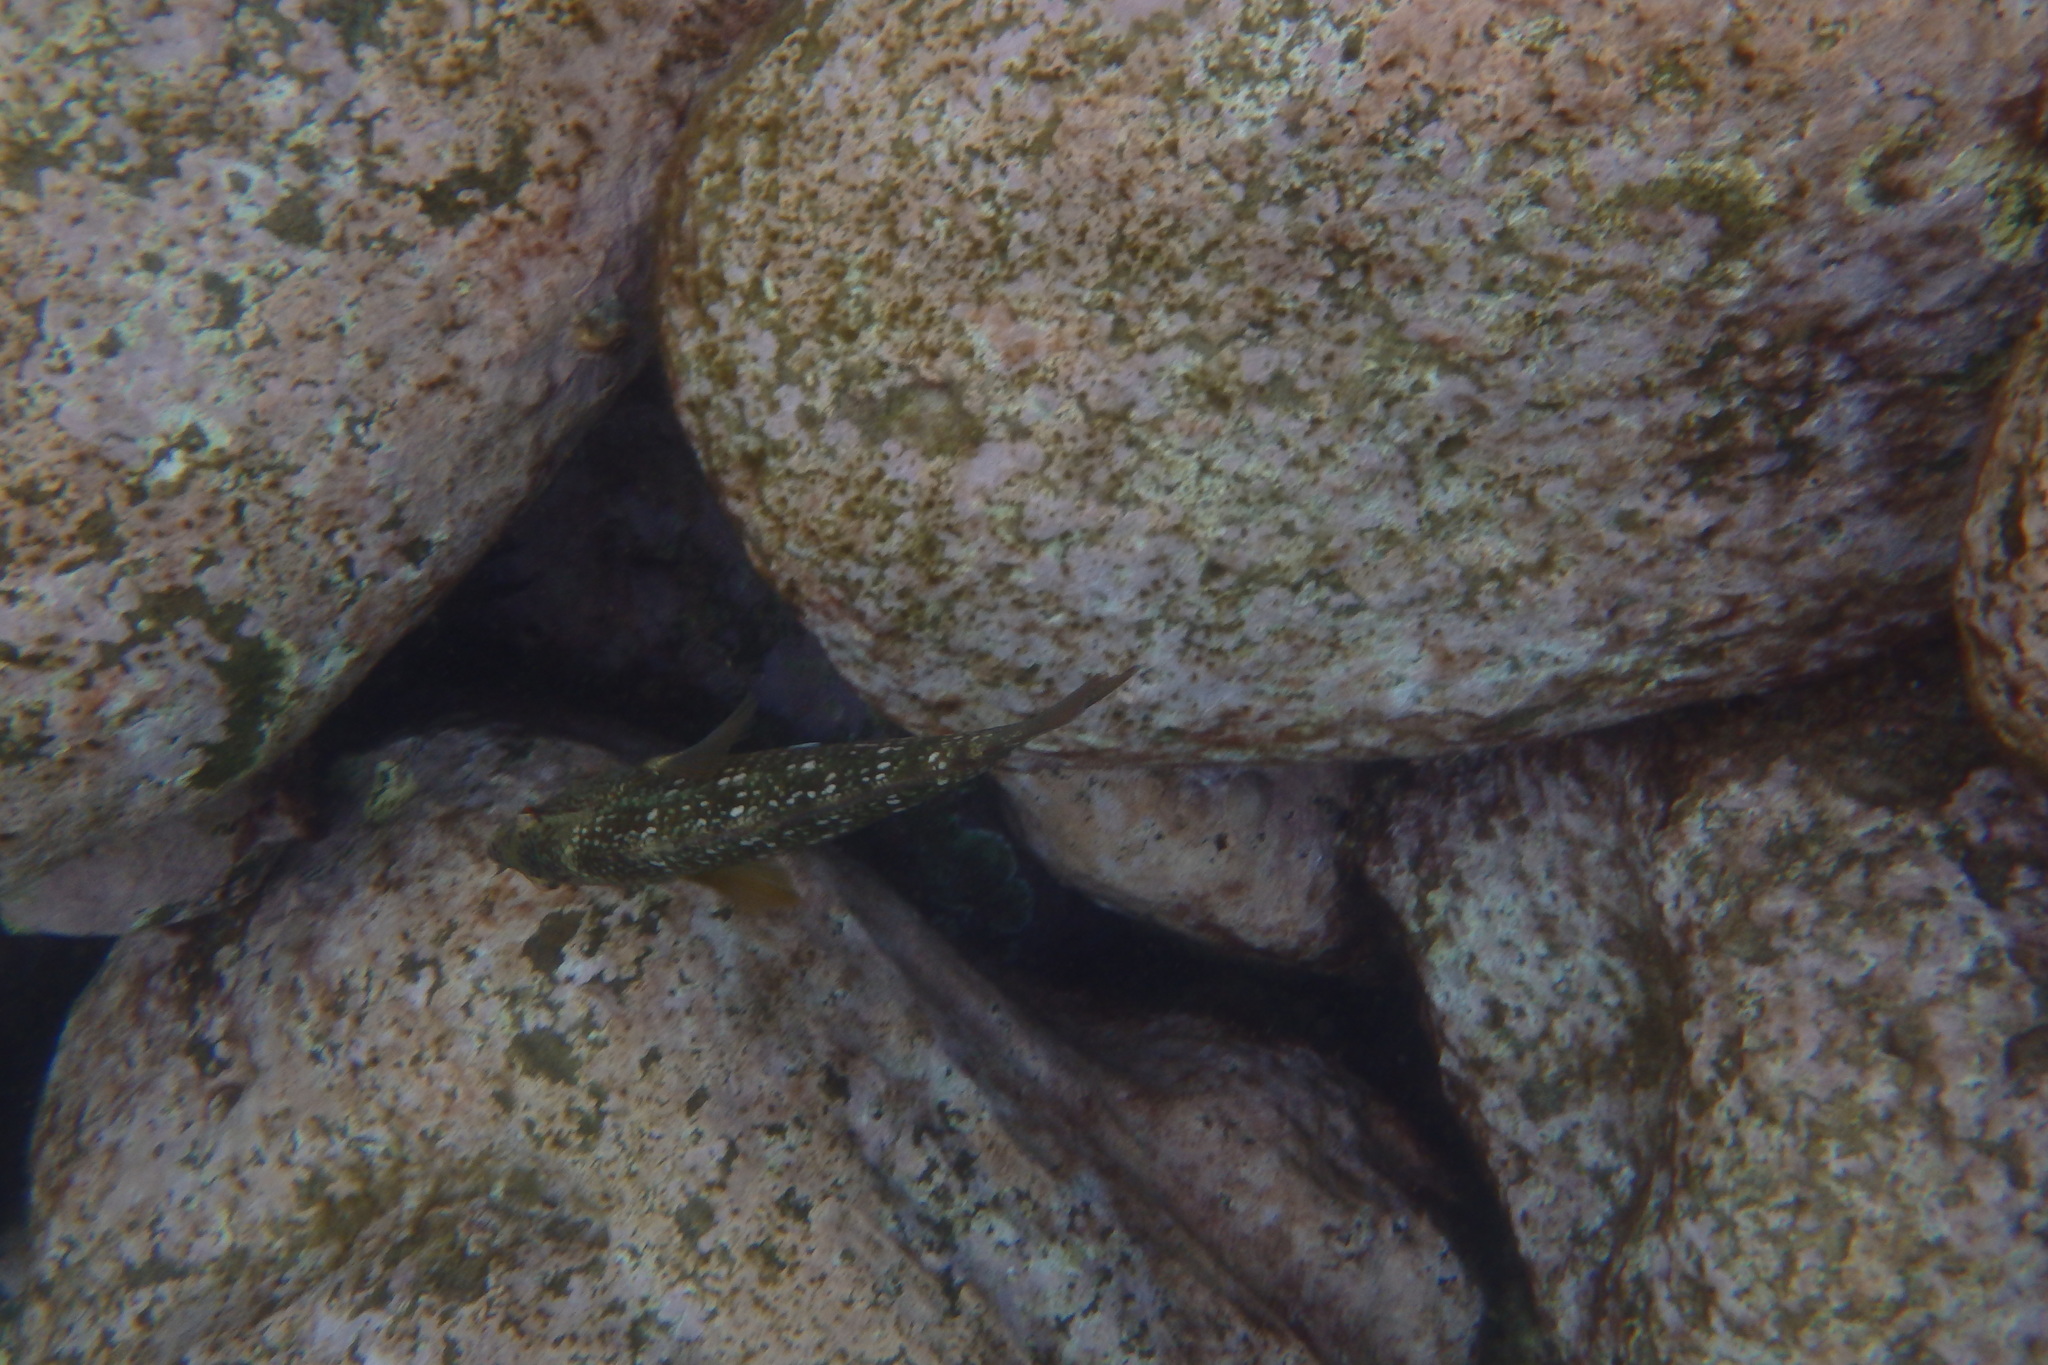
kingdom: Animalia
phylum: Chordata
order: Perciformes
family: Labridae
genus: Notolabrus
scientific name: Notolabrus gymnogenis
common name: Crimson banded wrasse
